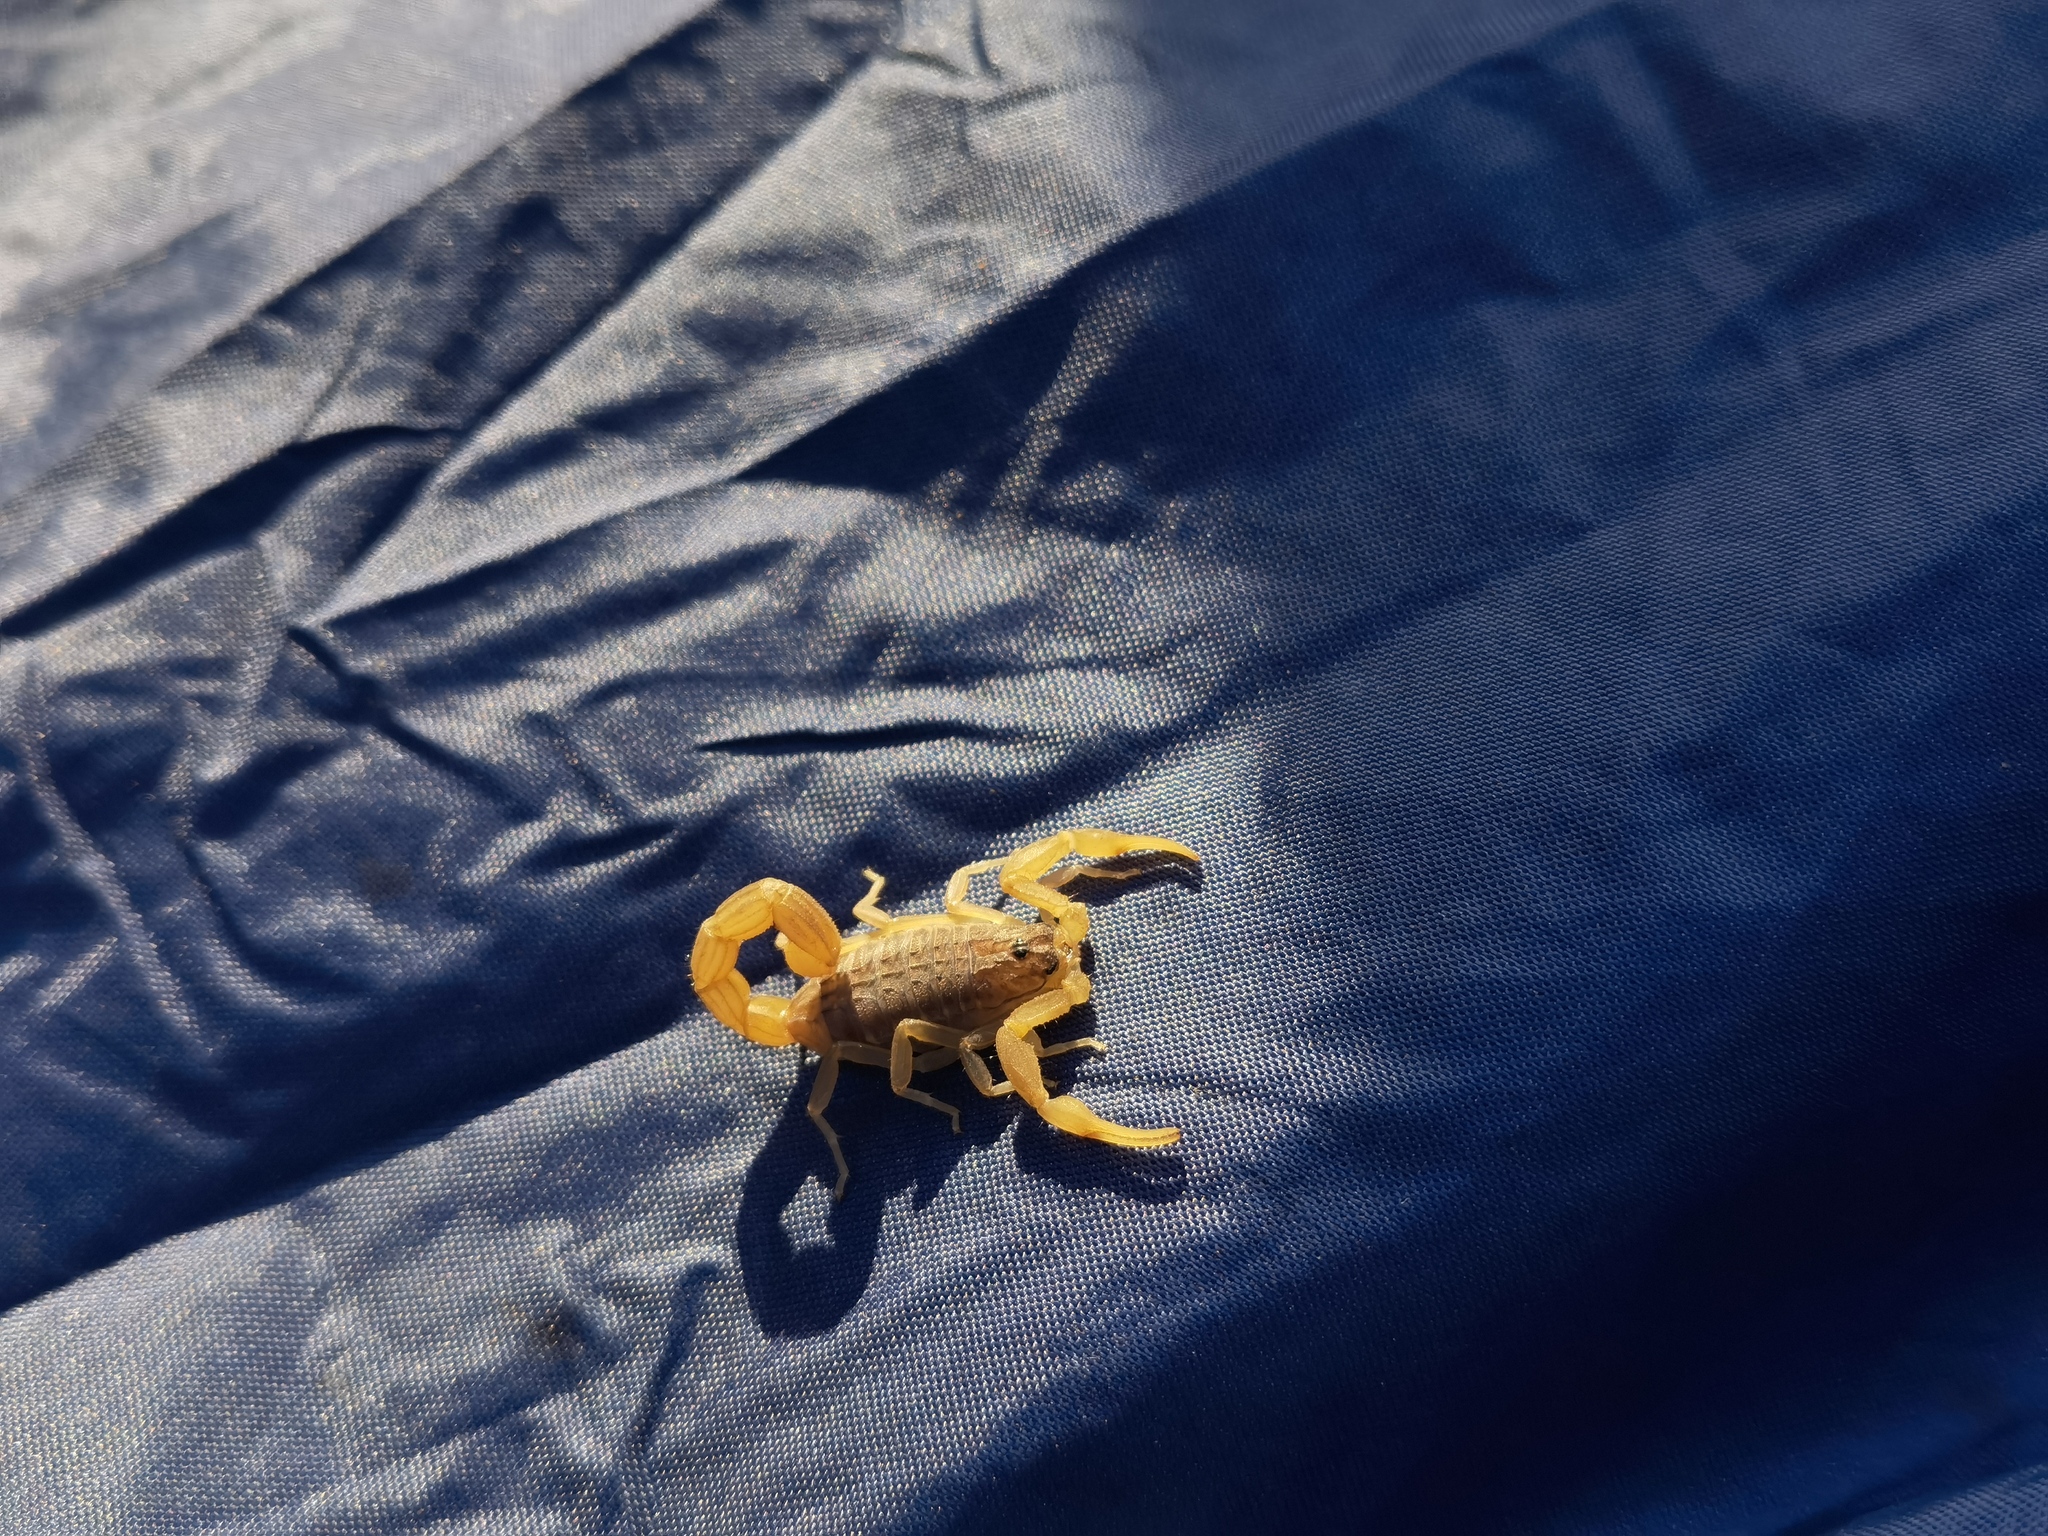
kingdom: Animalia
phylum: Arthropoda
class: Arachnida
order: Scorpiones
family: Buthidae
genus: Hottentotta
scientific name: Hottentotta mazuchi
